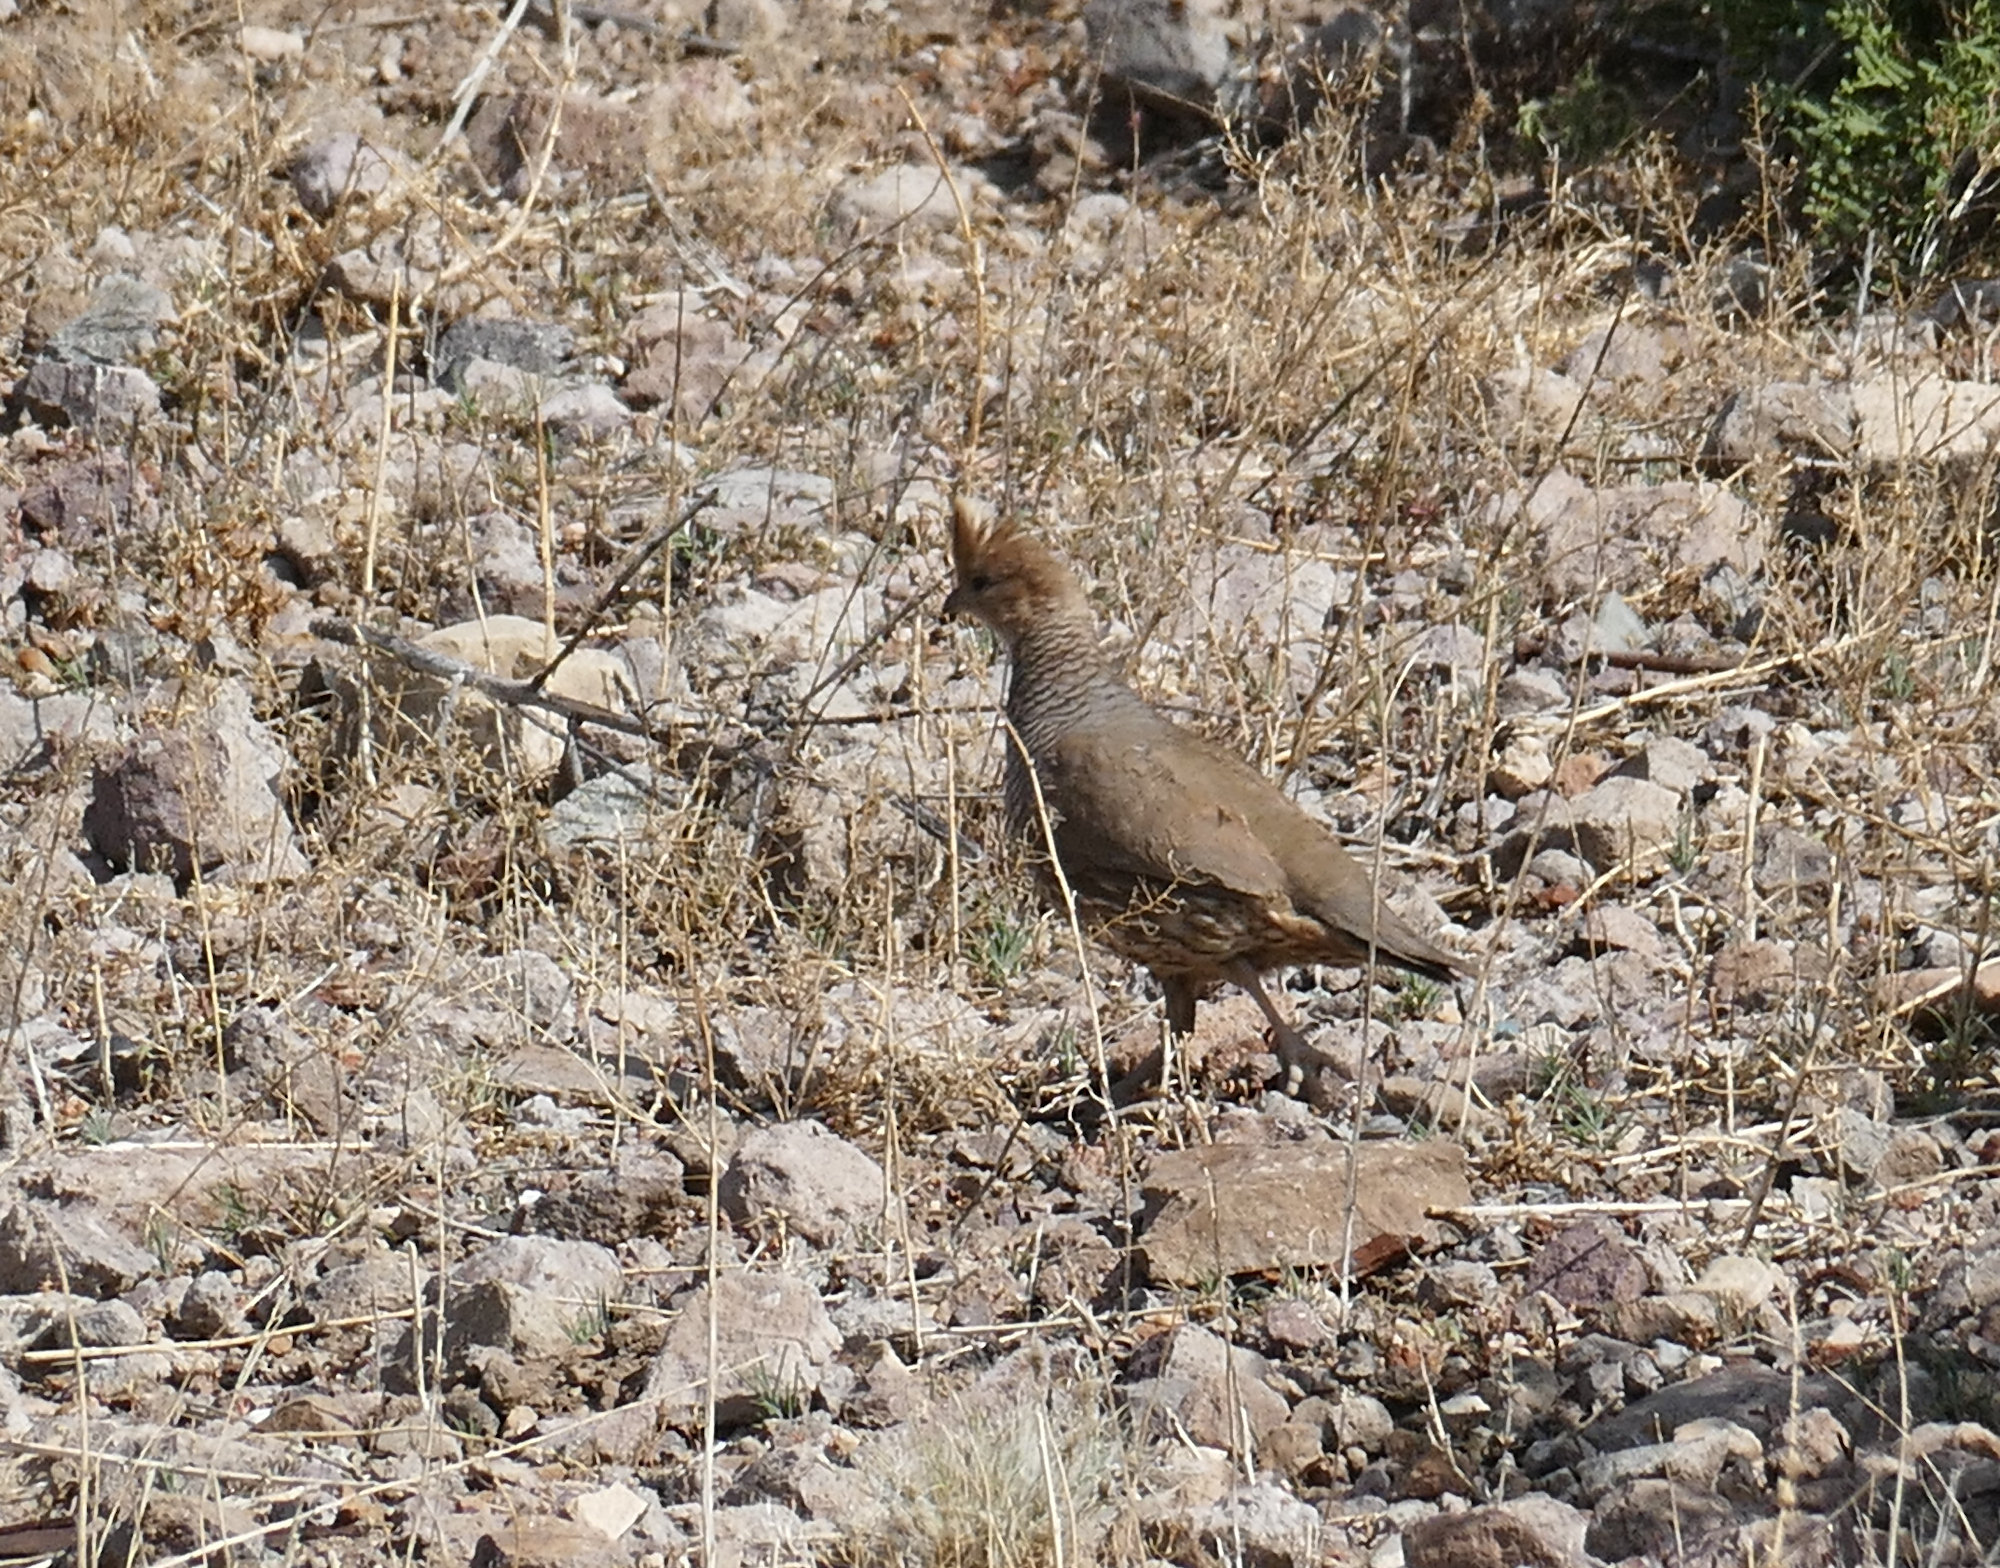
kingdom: Animalia
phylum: Chordata
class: Aves
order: Galliformes
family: Odontophoridae
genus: Callipepla
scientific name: Callipepla squamata
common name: Scaled quail
